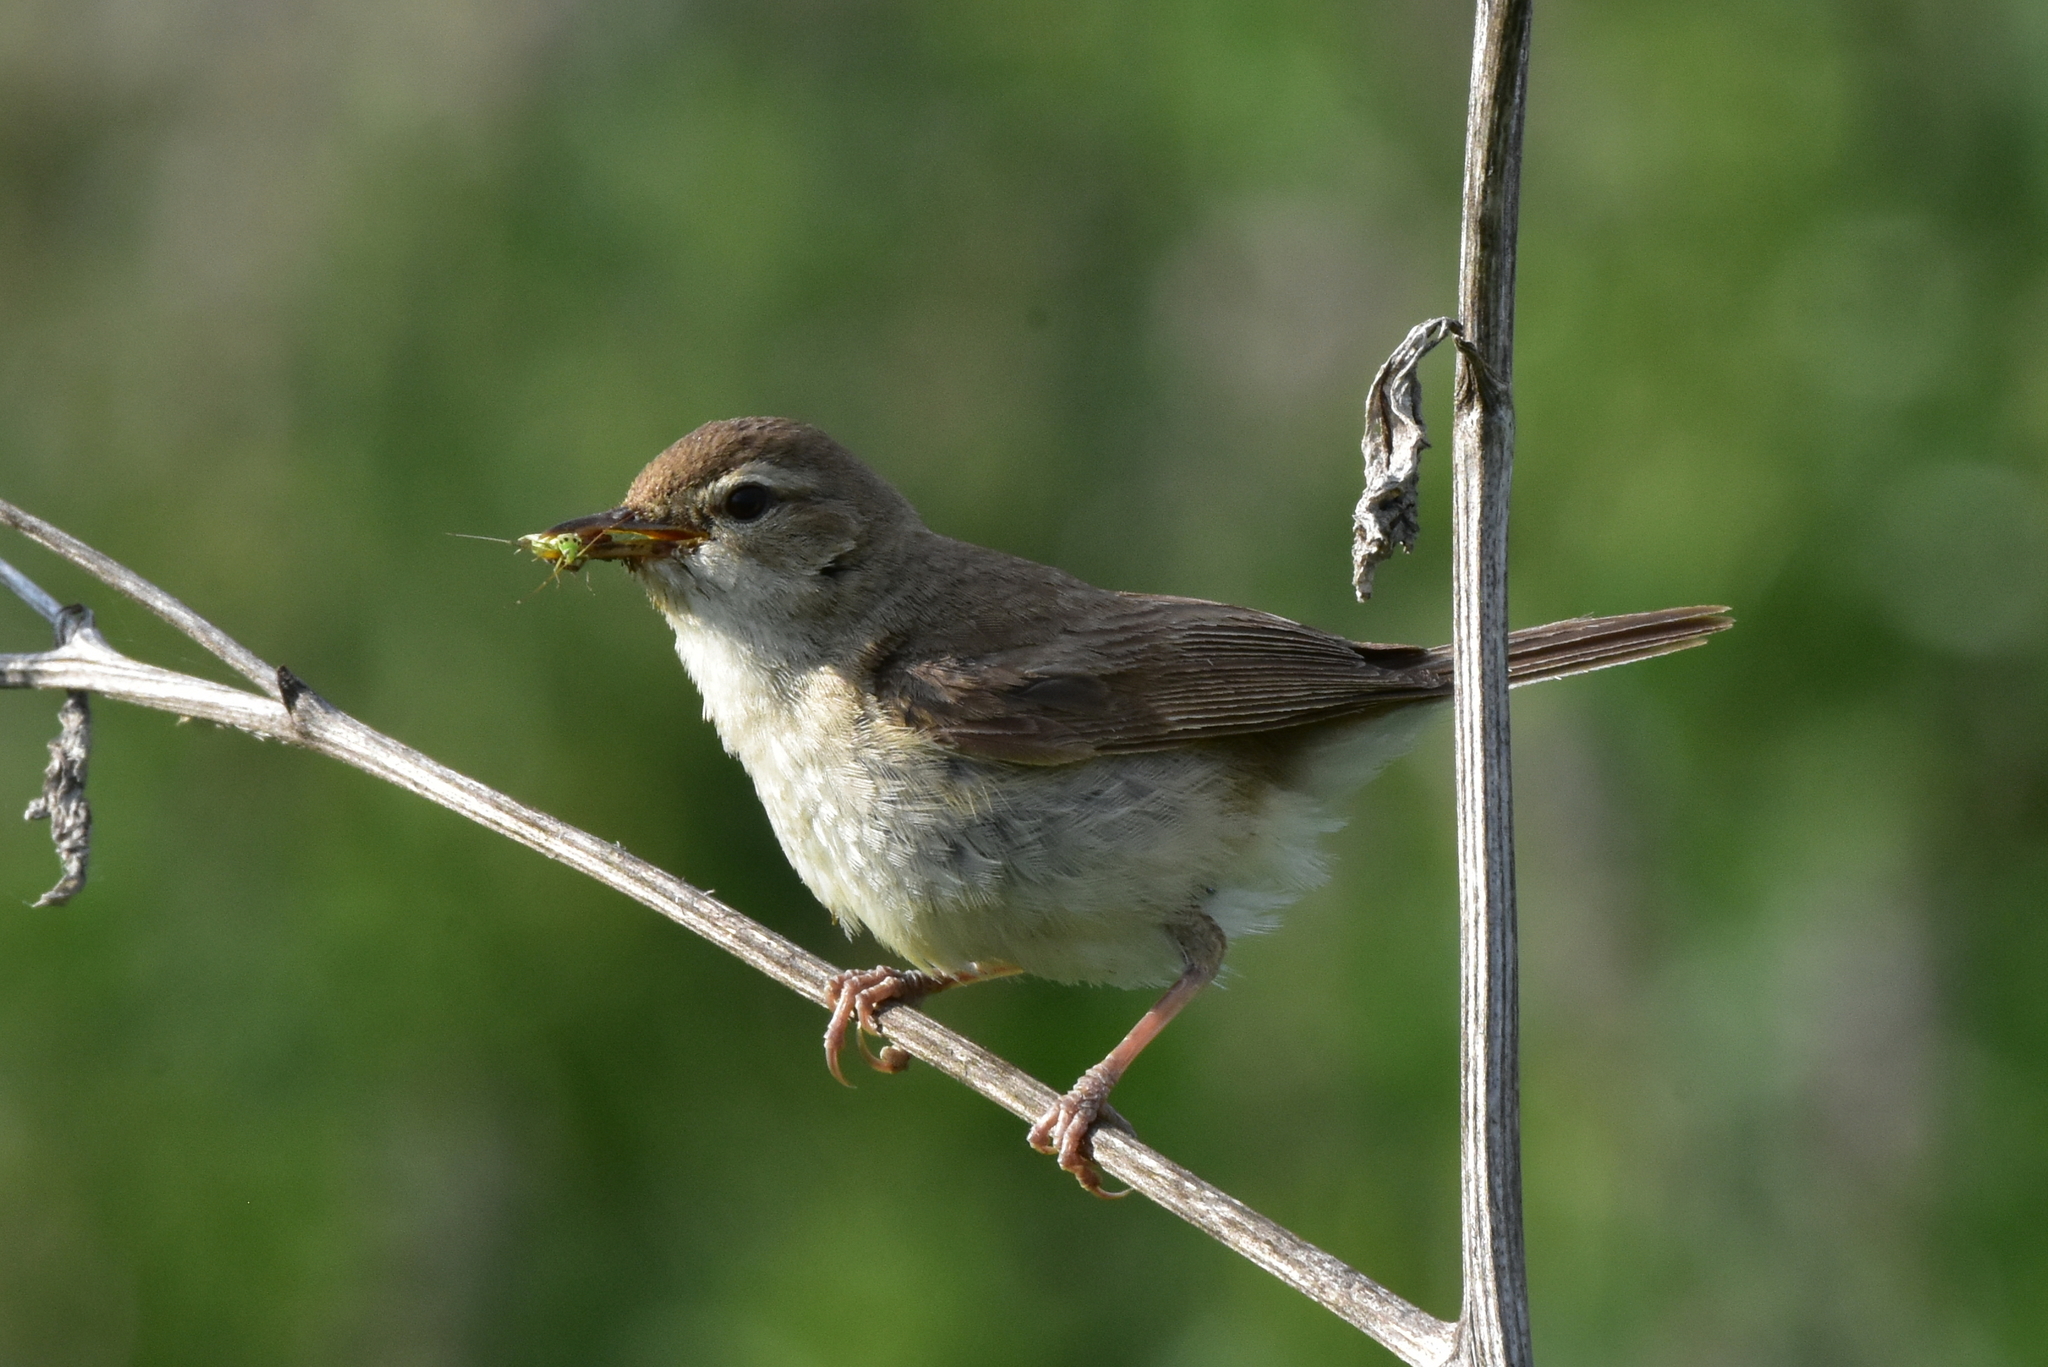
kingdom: Animalia
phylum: Chordata
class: Aves
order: Passeriformes
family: Acrocephalidae
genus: Iduna
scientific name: Iduna caligata
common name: Booted warbler
